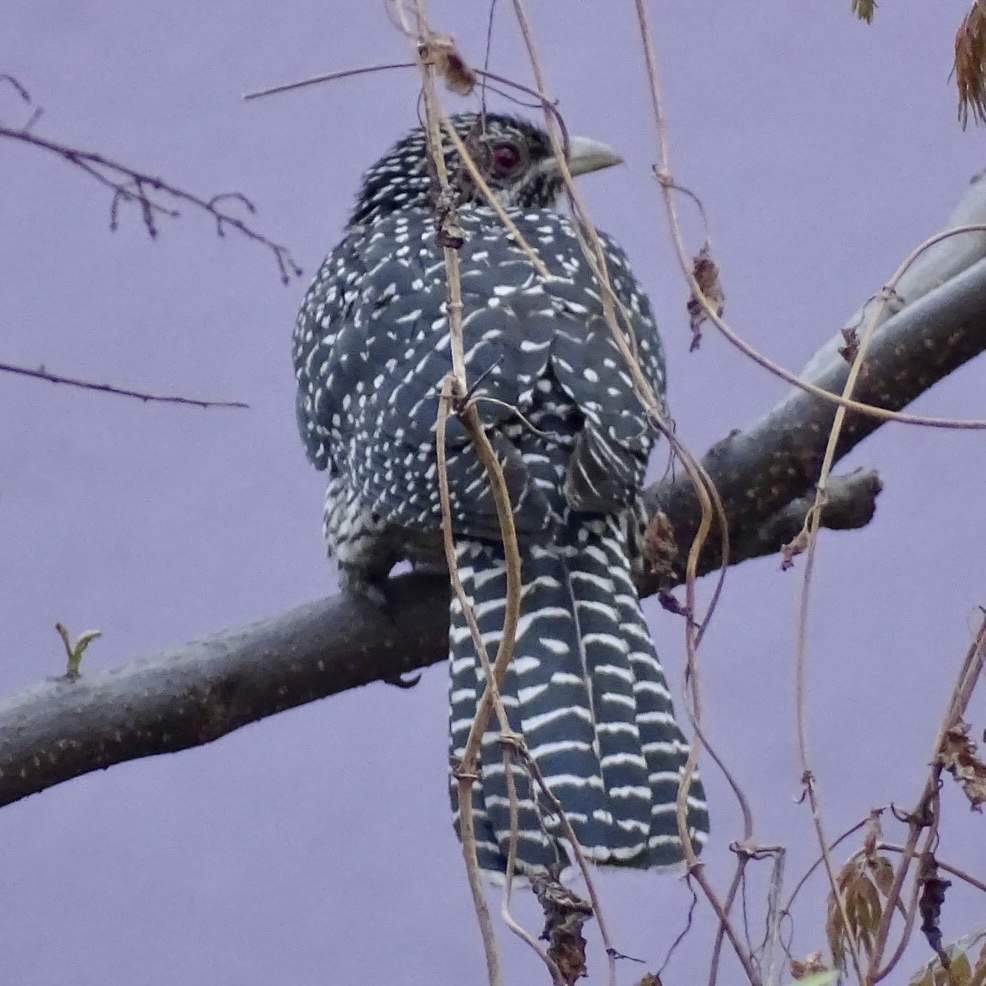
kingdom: Animalia
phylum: Chordata
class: Aves
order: Cuculiformes
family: Cuculidae
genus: Eudynamys
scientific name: Eudynamys scolopaceus
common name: Asian koel
